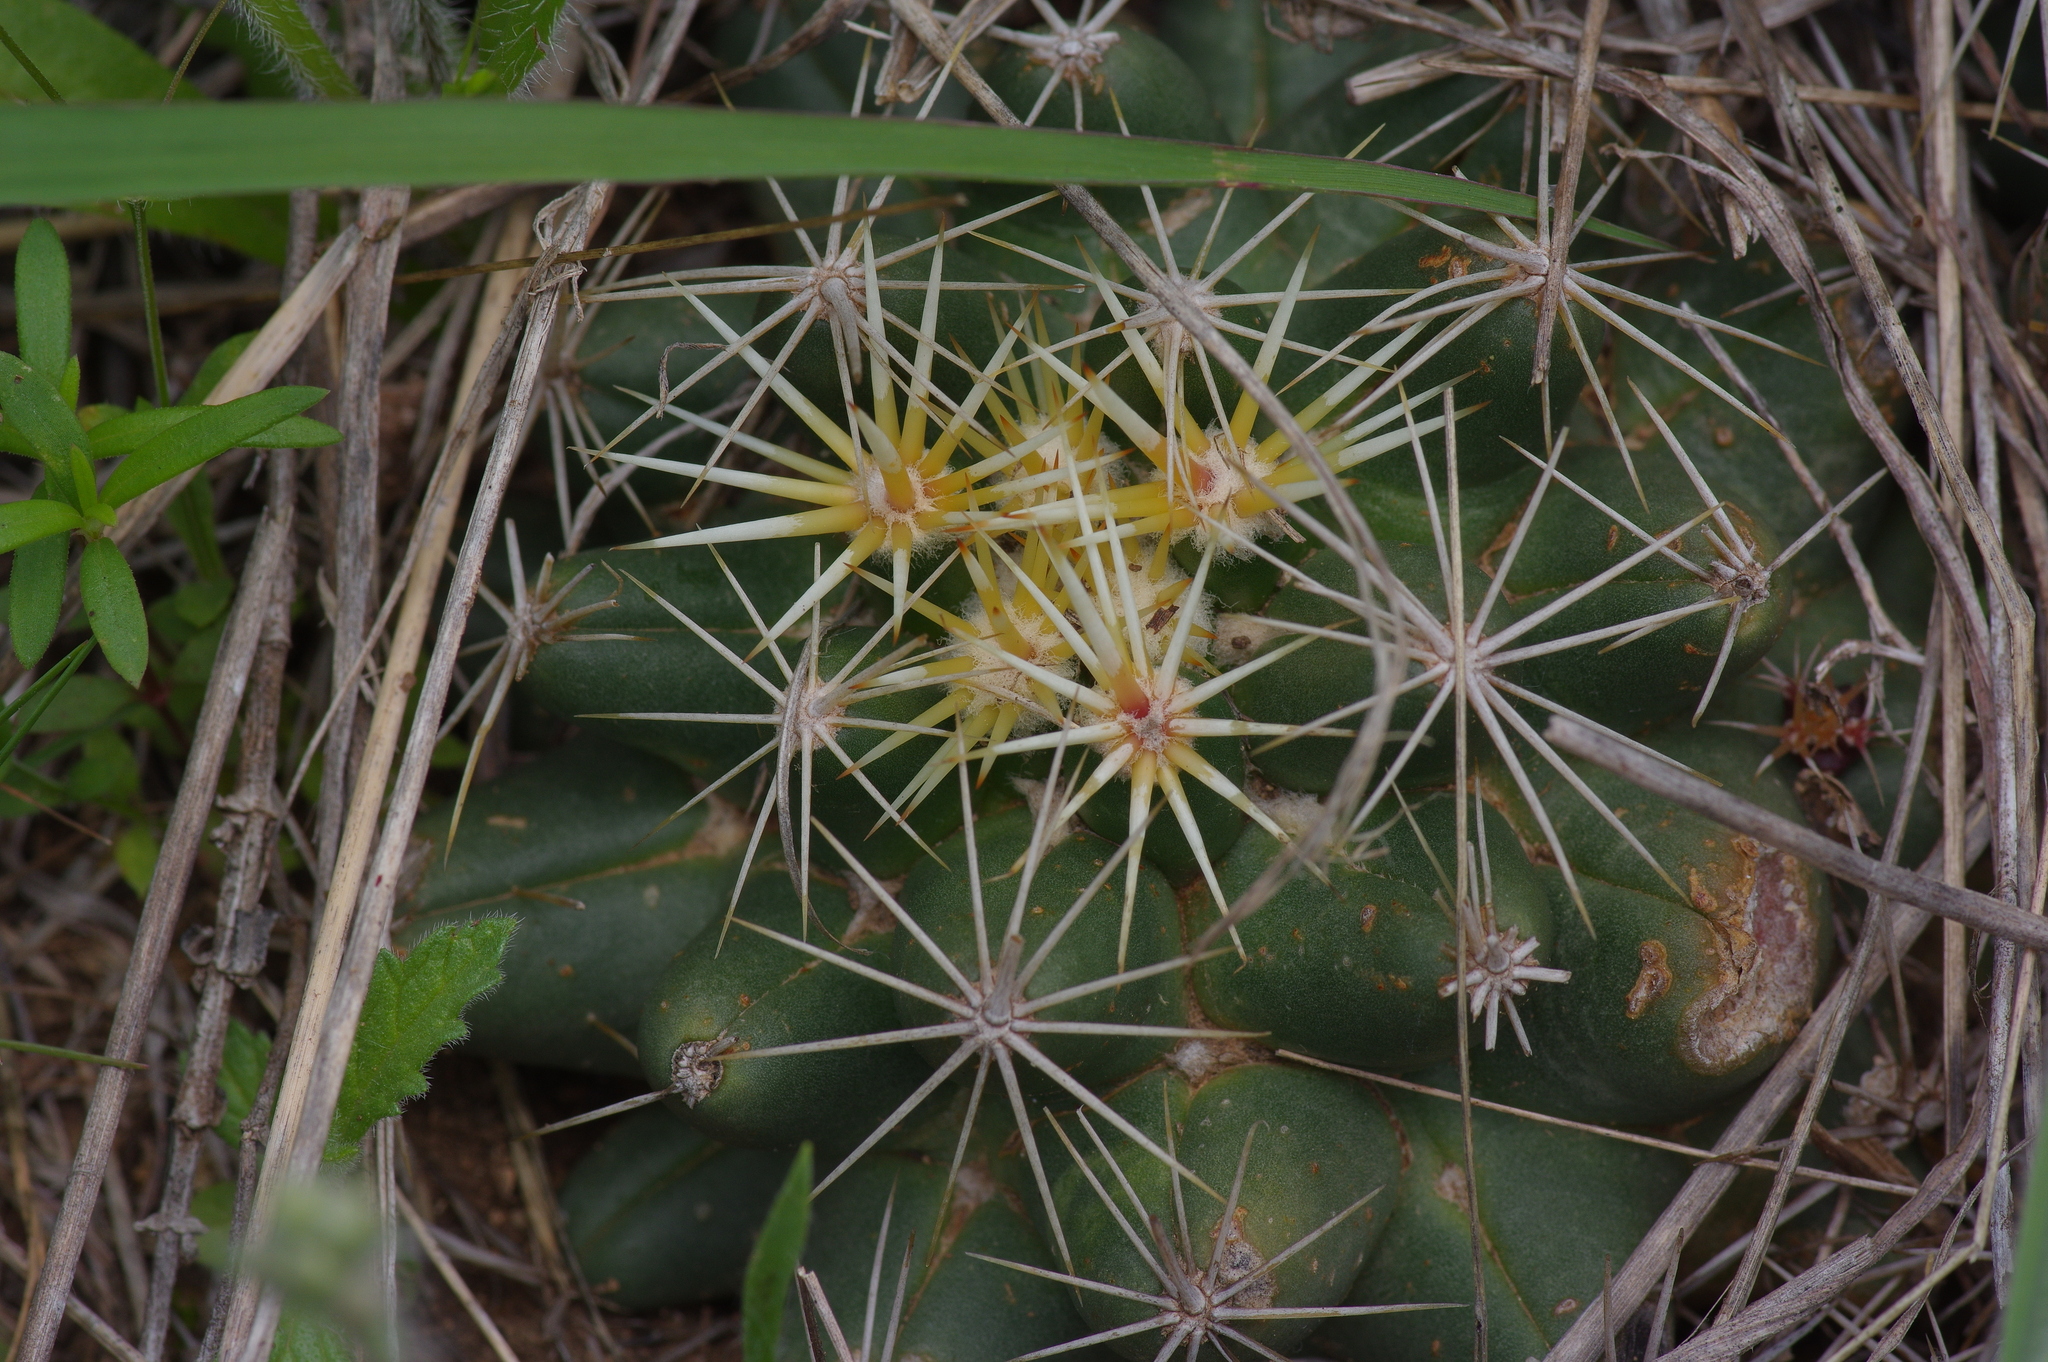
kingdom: Plantae
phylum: Tracheophyta
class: Magnoliopsida
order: Caryophyllales
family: Cactaceae
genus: Coryphantha
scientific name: Coryphantha sulcata
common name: Finger cactus
